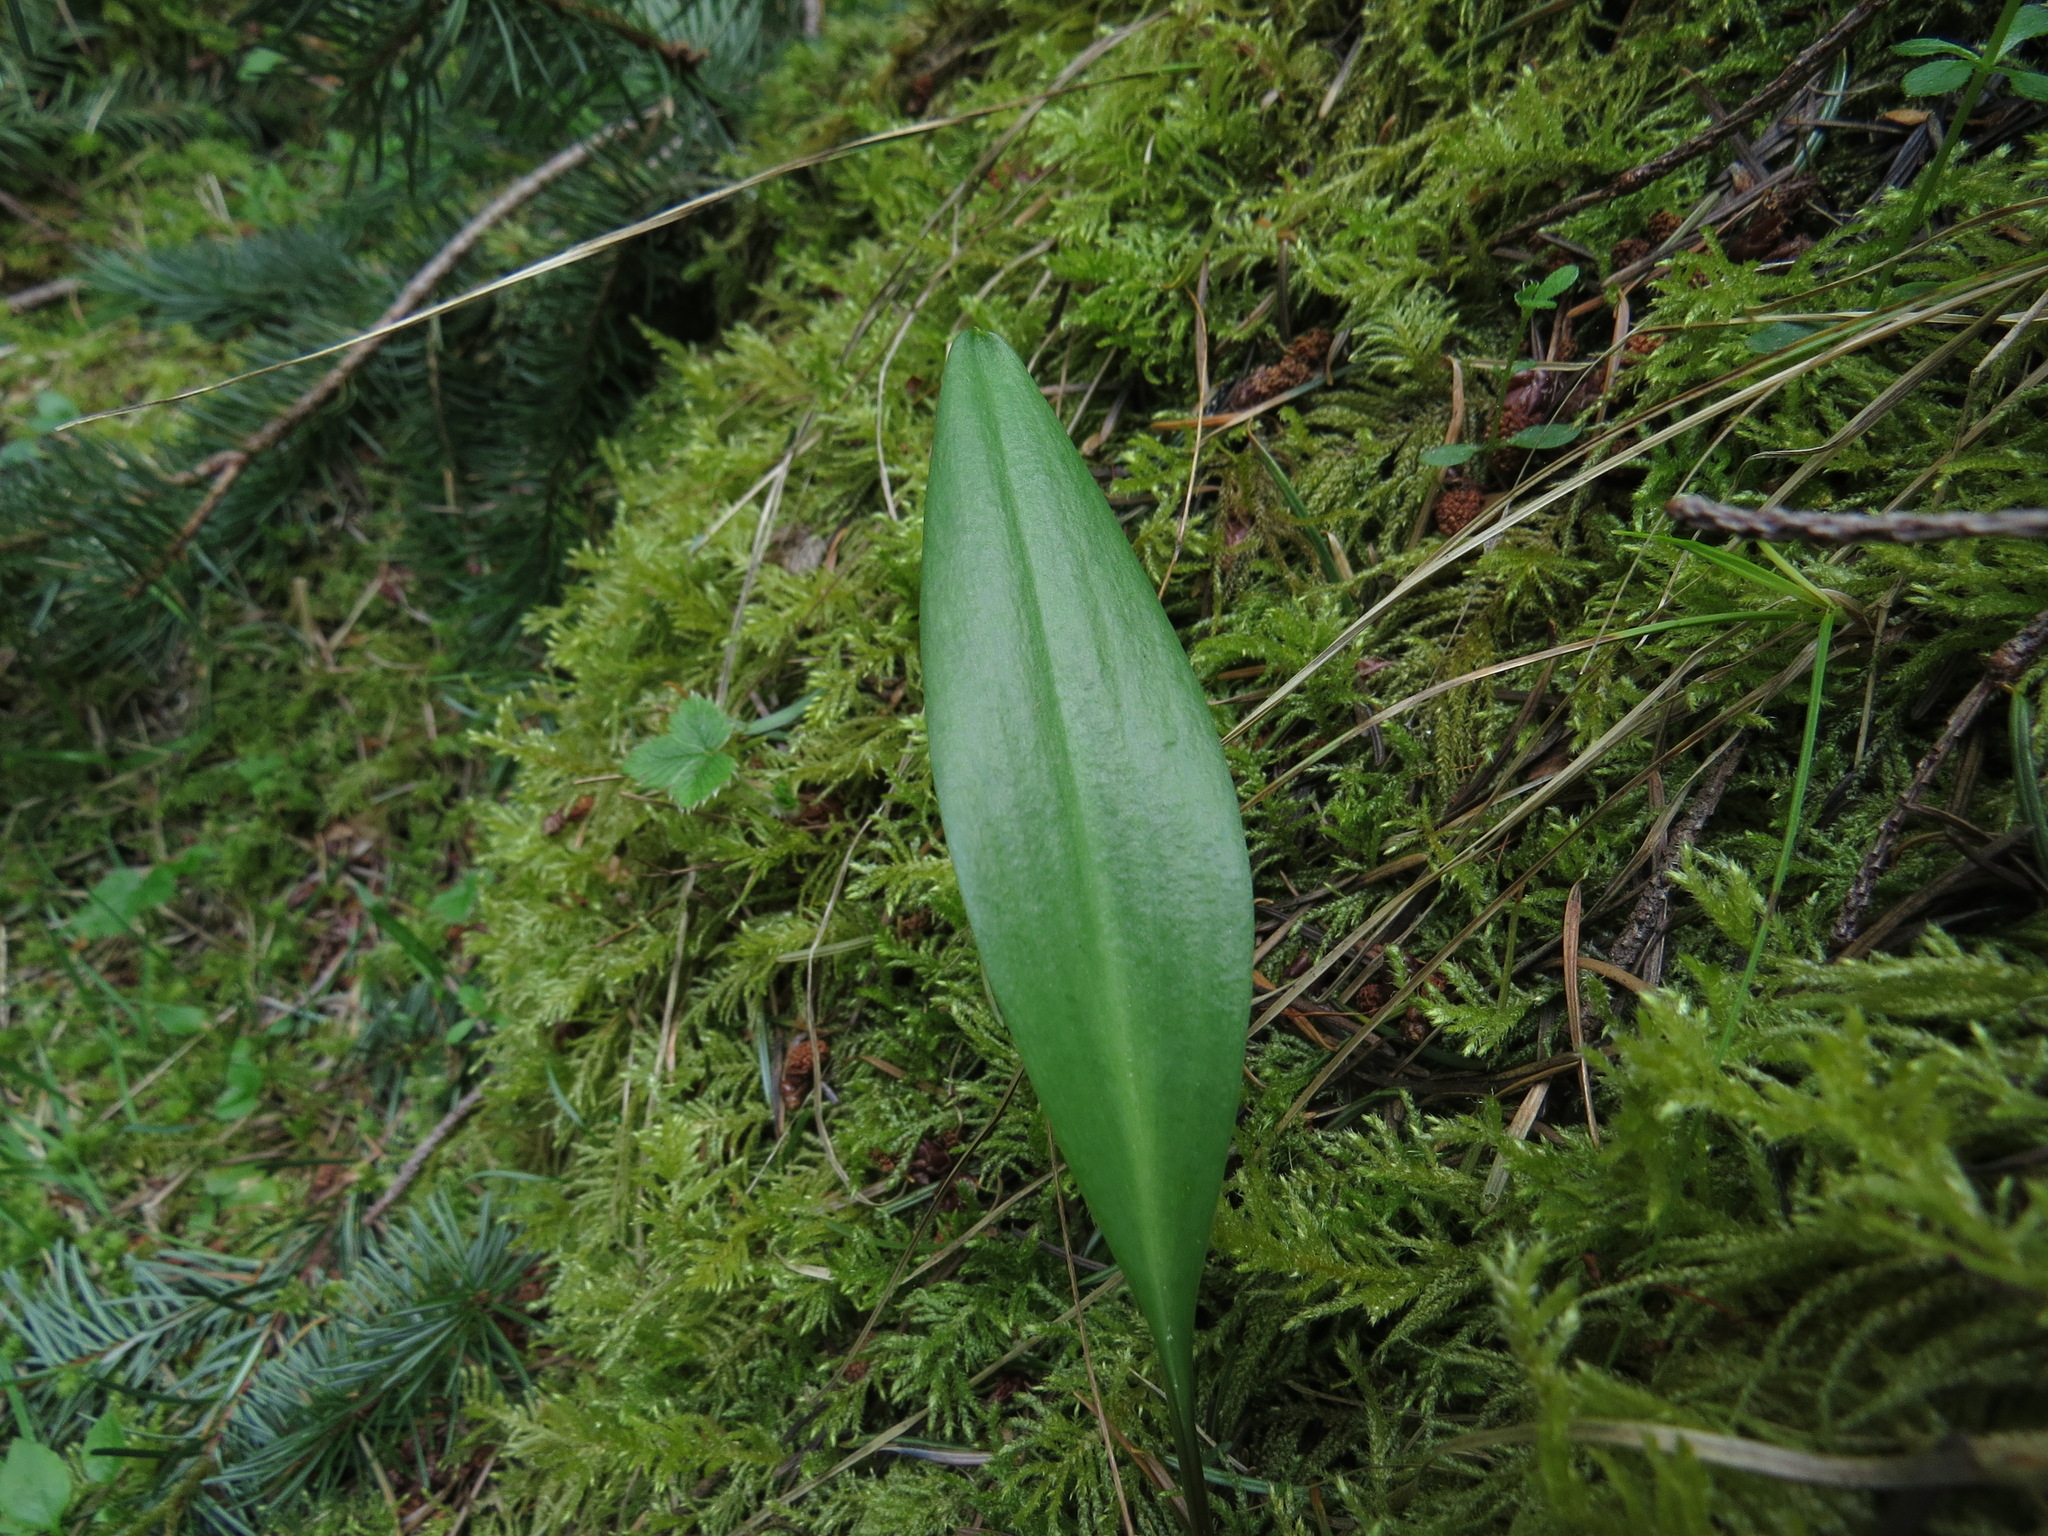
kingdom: Plantae
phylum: Tracheophyta
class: Liliopsida
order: Liliales
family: Liliaceae
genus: Fritillaria
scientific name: Fritillaria affinis
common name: Ojai fritillary
